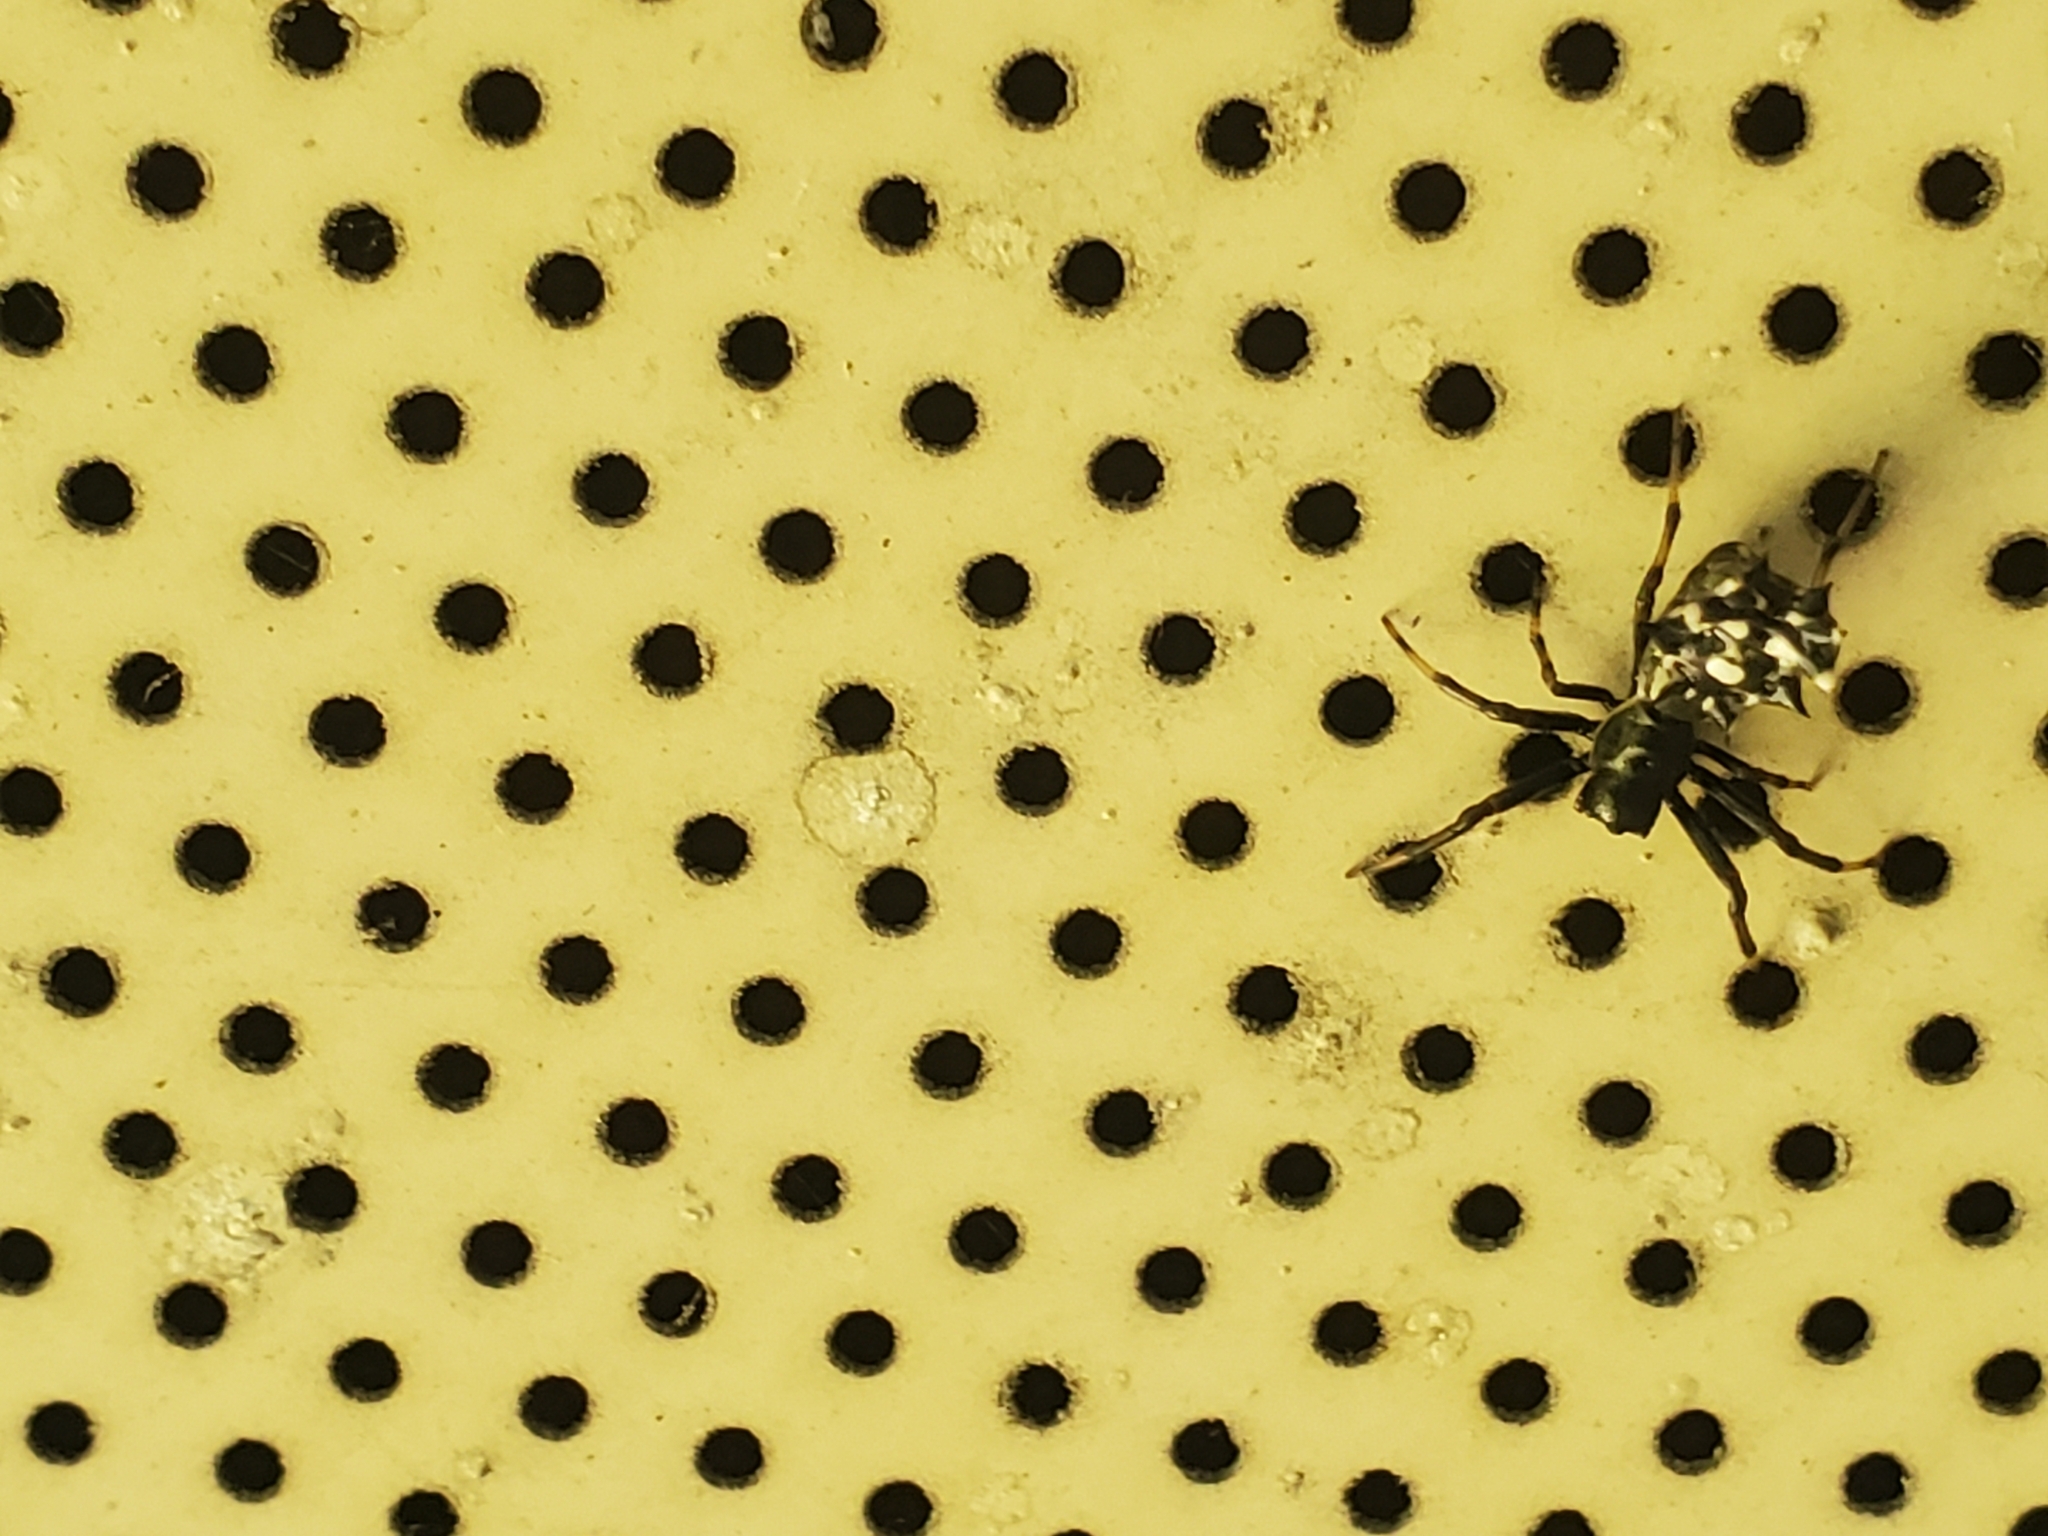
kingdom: Animalia
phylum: Arthropoda
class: Arachnida
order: Araneae
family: Araneidae
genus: Micrathena
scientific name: Micrathena gracilis
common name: Orb weavers
